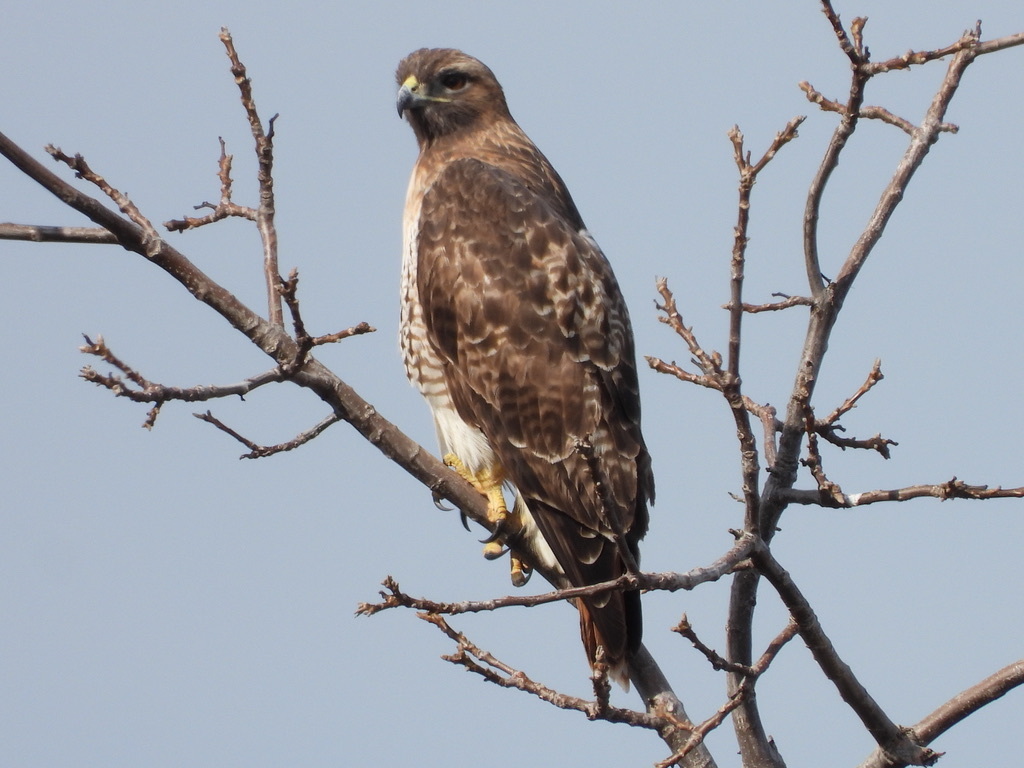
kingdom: Animalia
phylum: Chordata
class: Aves
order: Accipitriformes
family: Accipitridae
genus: Buteo
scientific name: Buteo jamaicensis
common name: Red-tailed hawk
